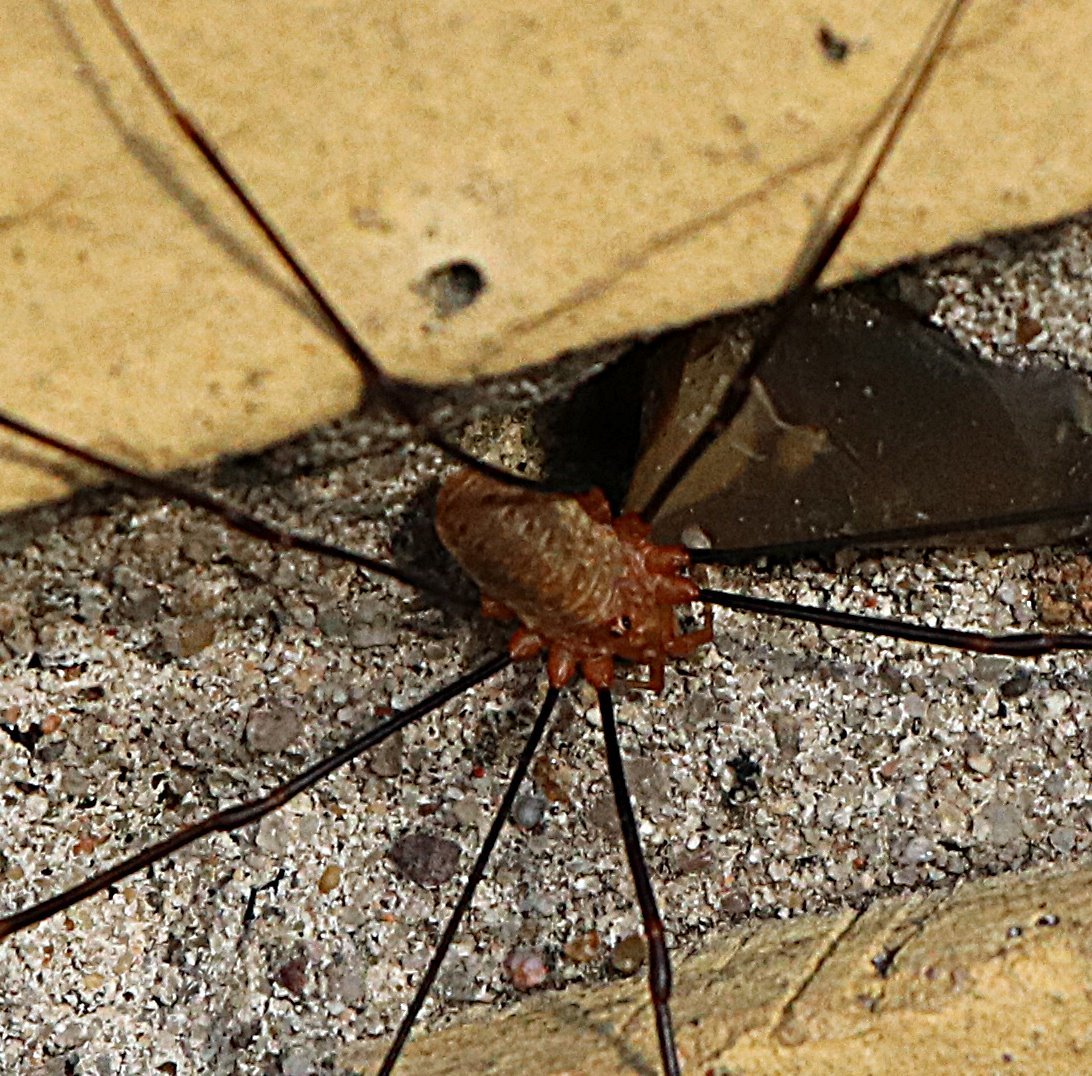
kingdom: Animalia
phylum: Arthropoda
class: Arachnida
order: Opiliones
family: Phalangiidae
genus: Opilio
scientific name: Opilio canestrinii
